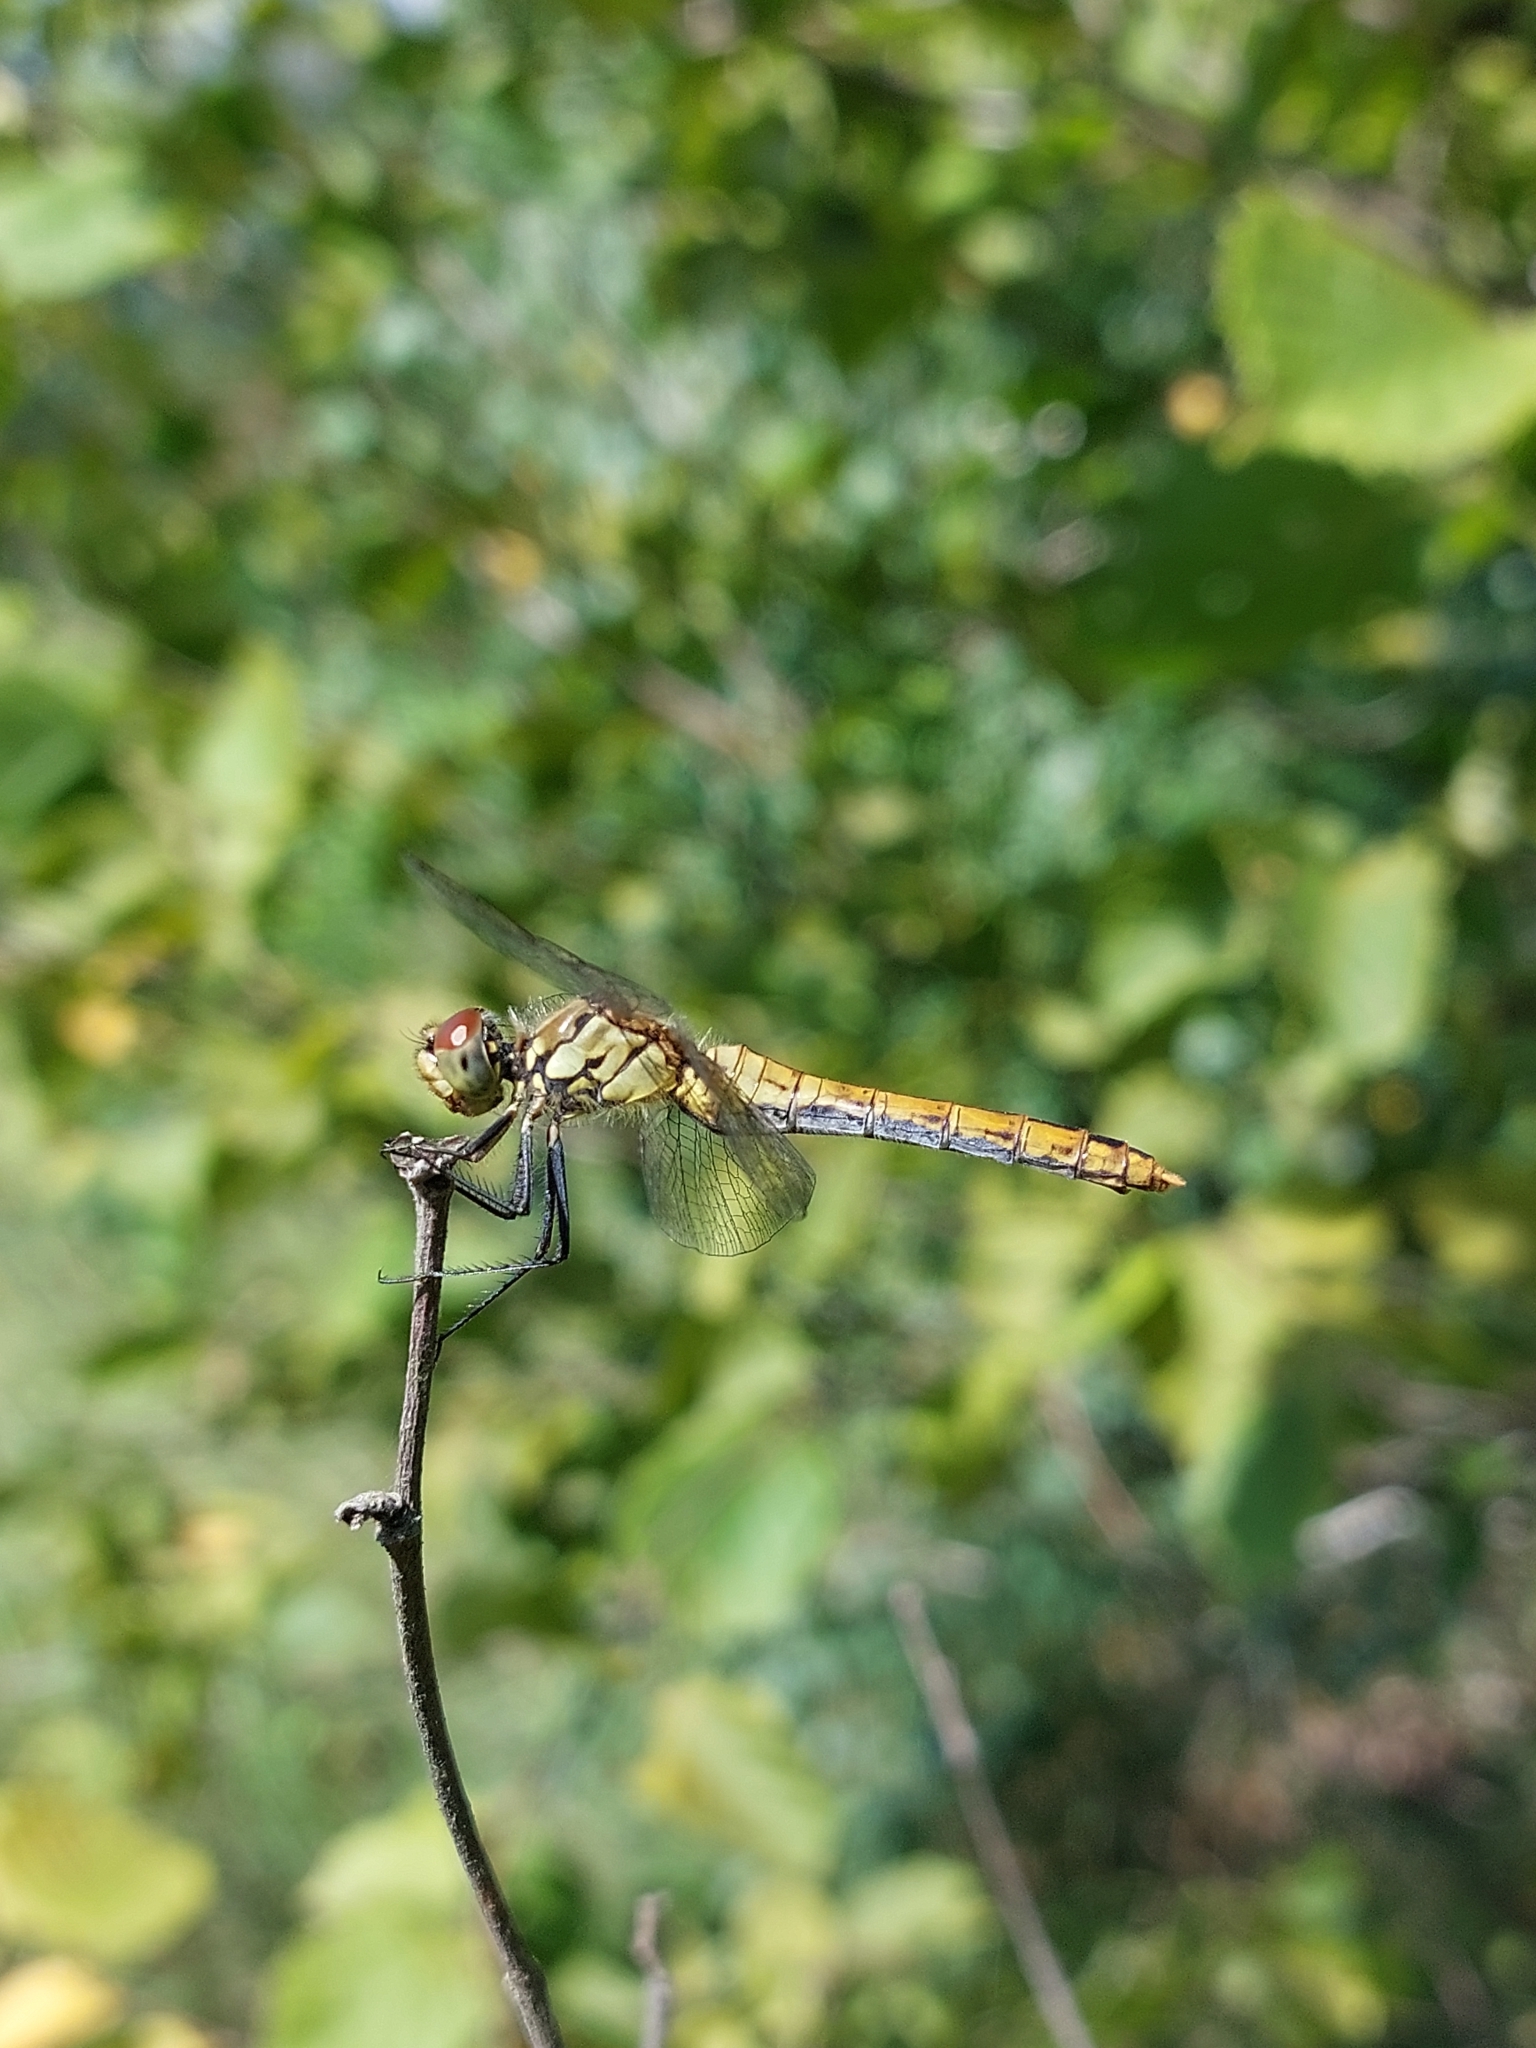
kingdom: Animalia
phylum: Arthropoda
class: Insecta
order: Odonata
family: Libellulidae
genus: Sympetrum
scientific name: Sympetrum sanguineum
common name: Ruddy darter
